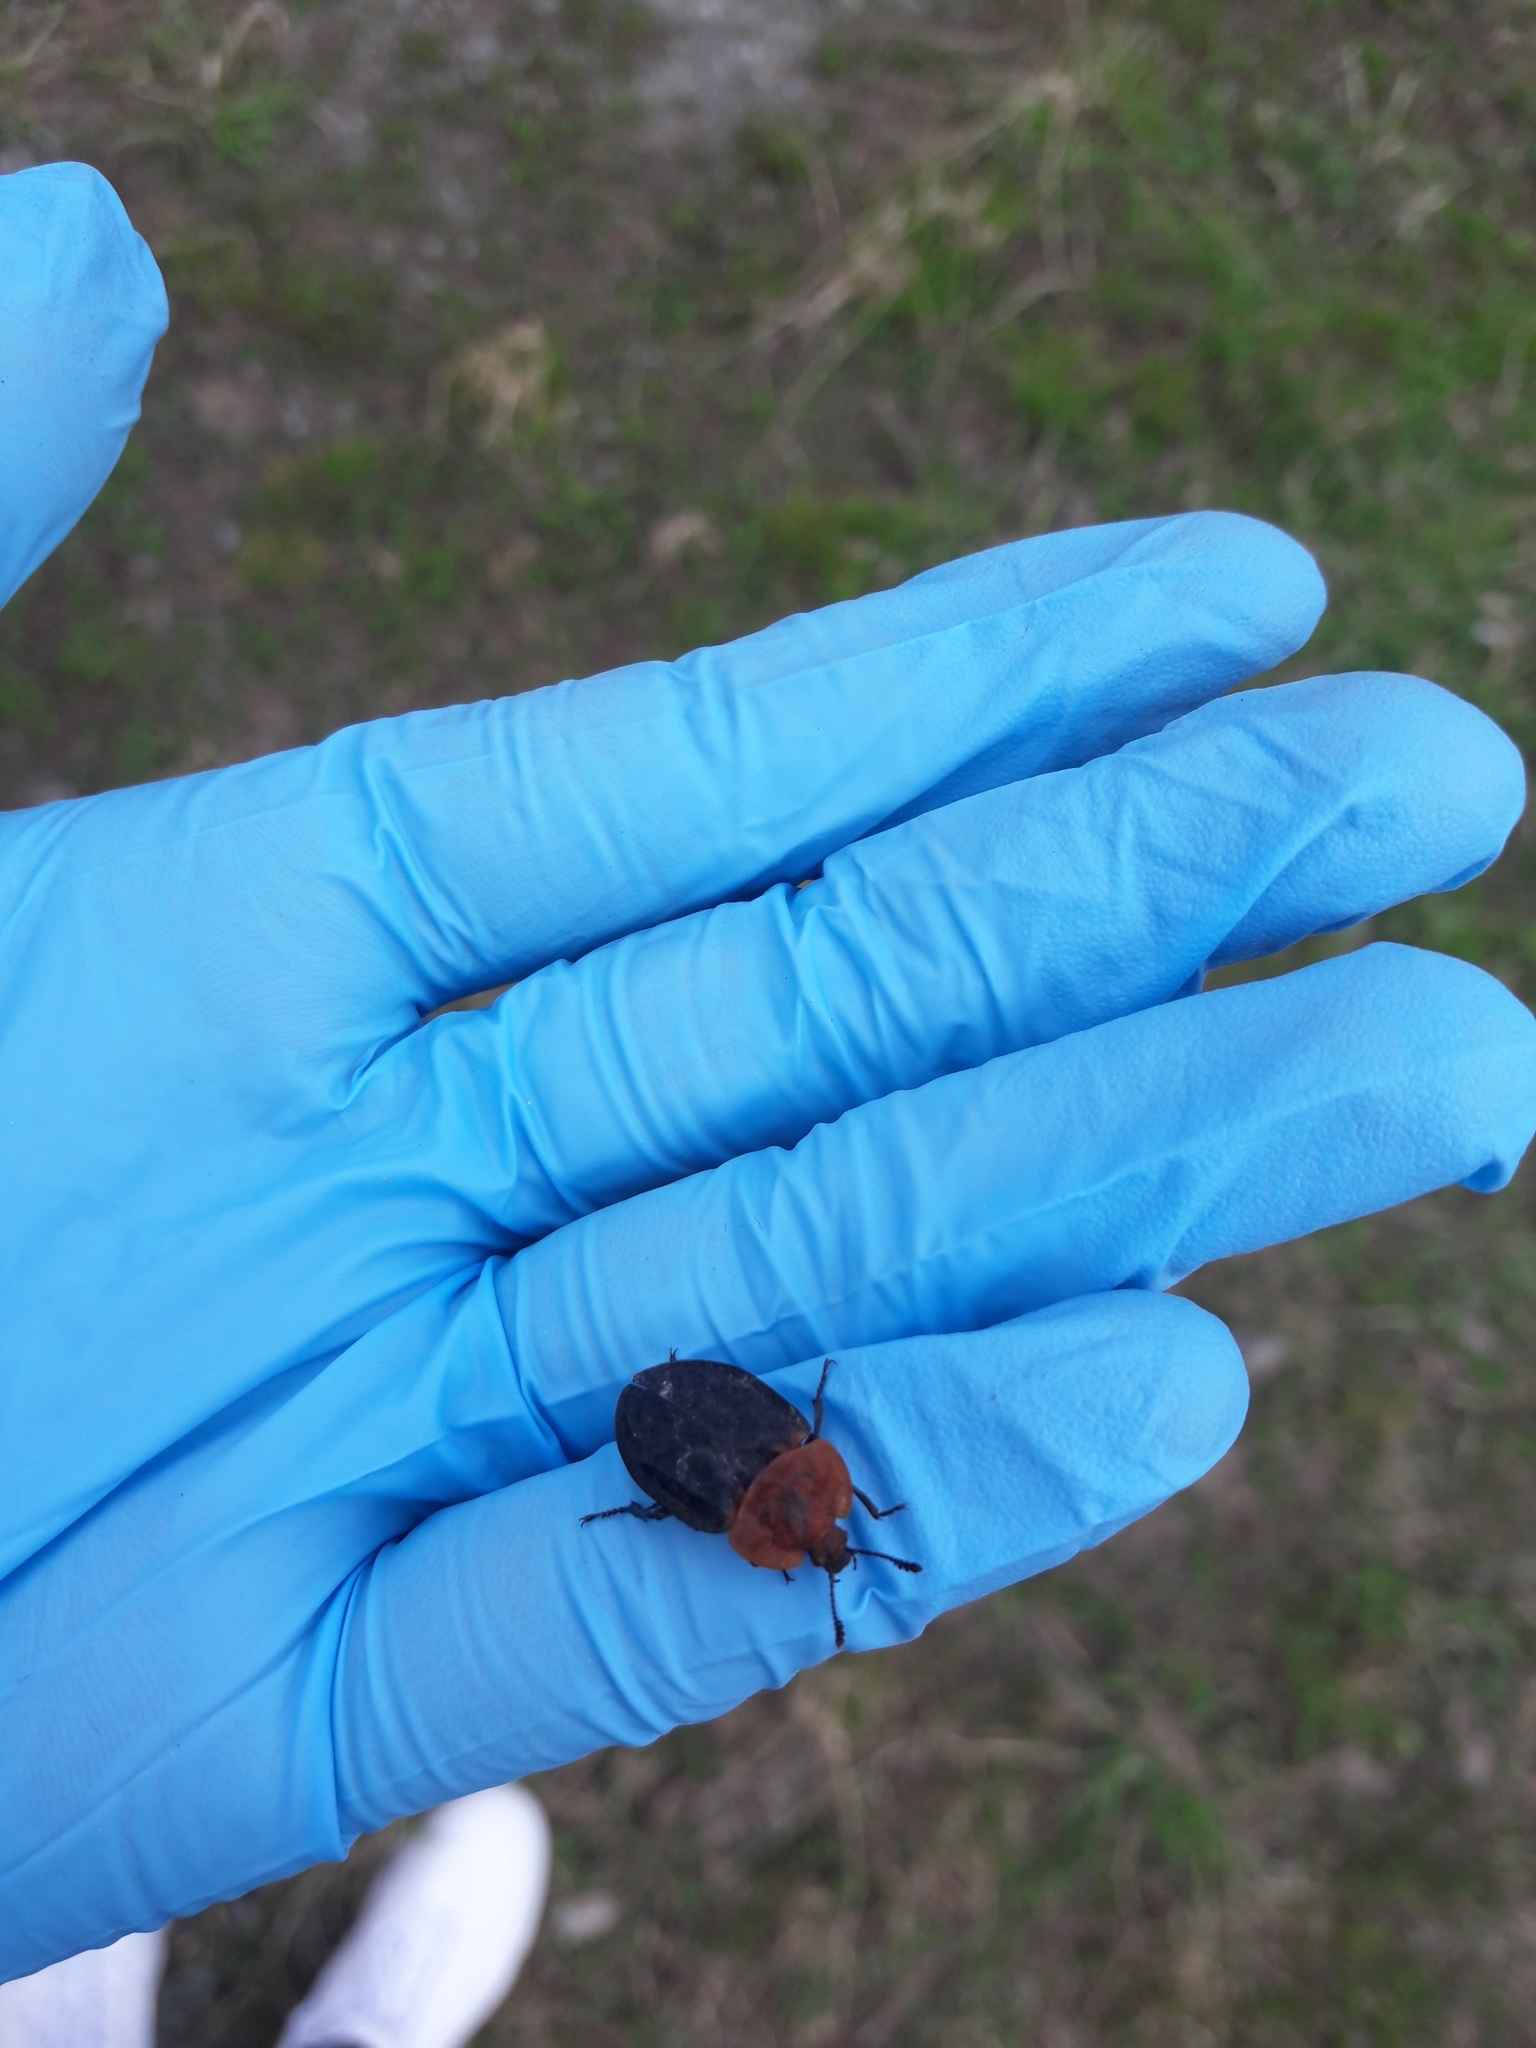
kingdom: Animalia
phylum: Arthropoda
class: Insecta
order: Coleoptera
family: Staphylinidae
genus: Oiceoptoma
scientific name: Oiceoptoma thoracicum
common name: Red-breasted carrion beetle
